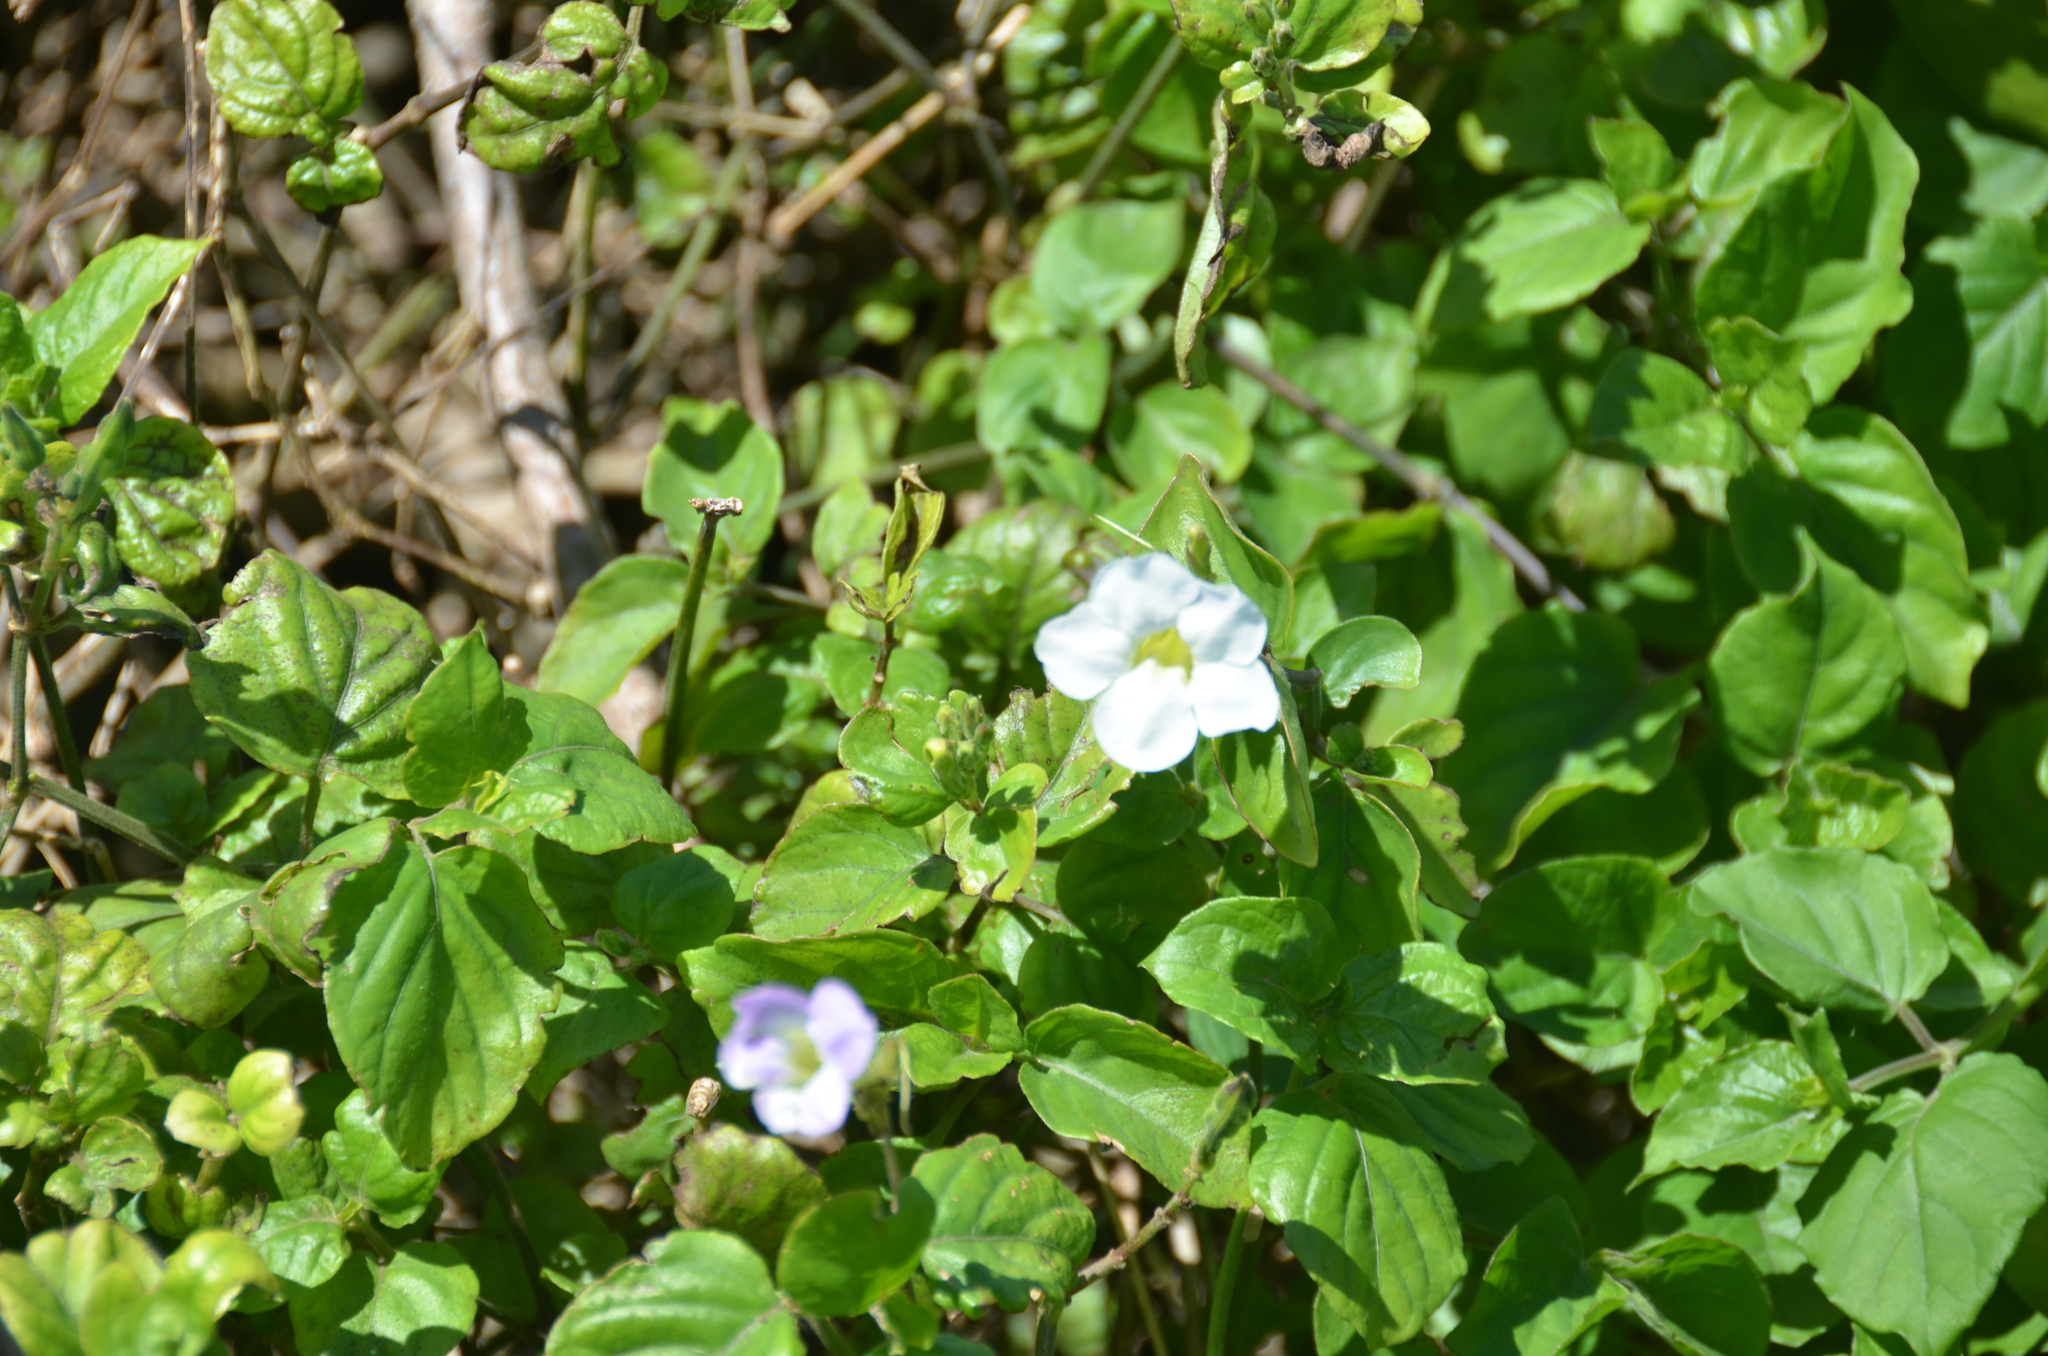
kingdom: Plantae
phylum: Tracheophyta
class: Magnoliopsida
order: Lamiales
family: Acanthaceae
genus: Asystasia
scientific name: Asystasia gangetica
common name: Chinese violet
